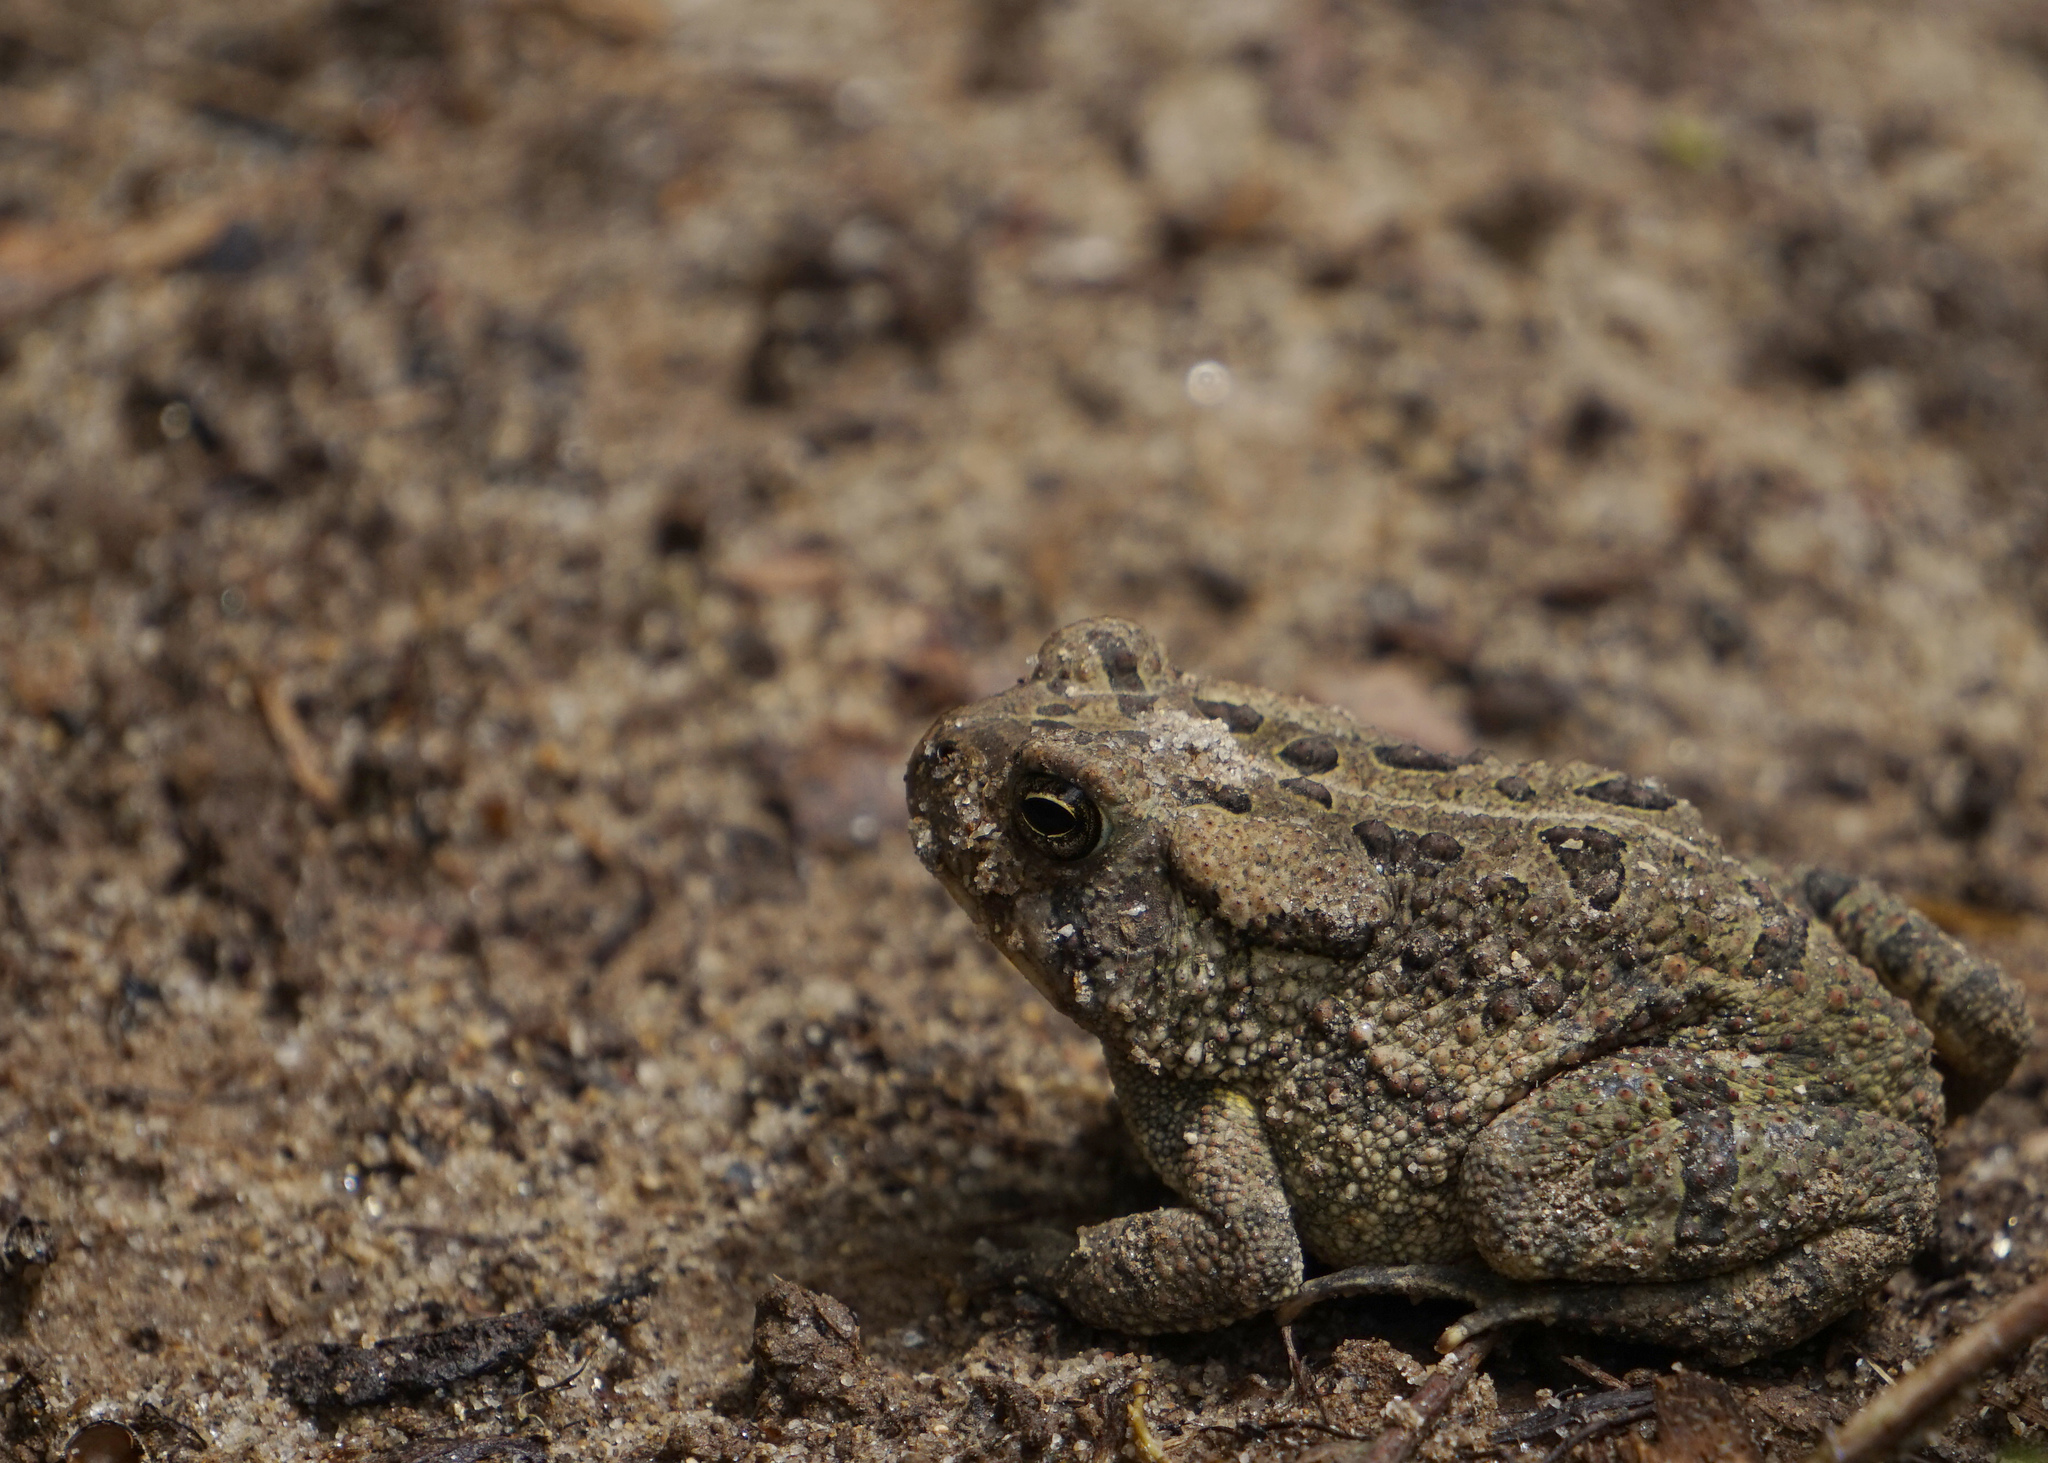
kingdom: Animalia
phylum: Chordata
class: Amphibia
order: Anura
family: Bufonidae
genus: Anaxyrus
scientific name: Anaxyrus fowleri
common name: Fowler's toad
